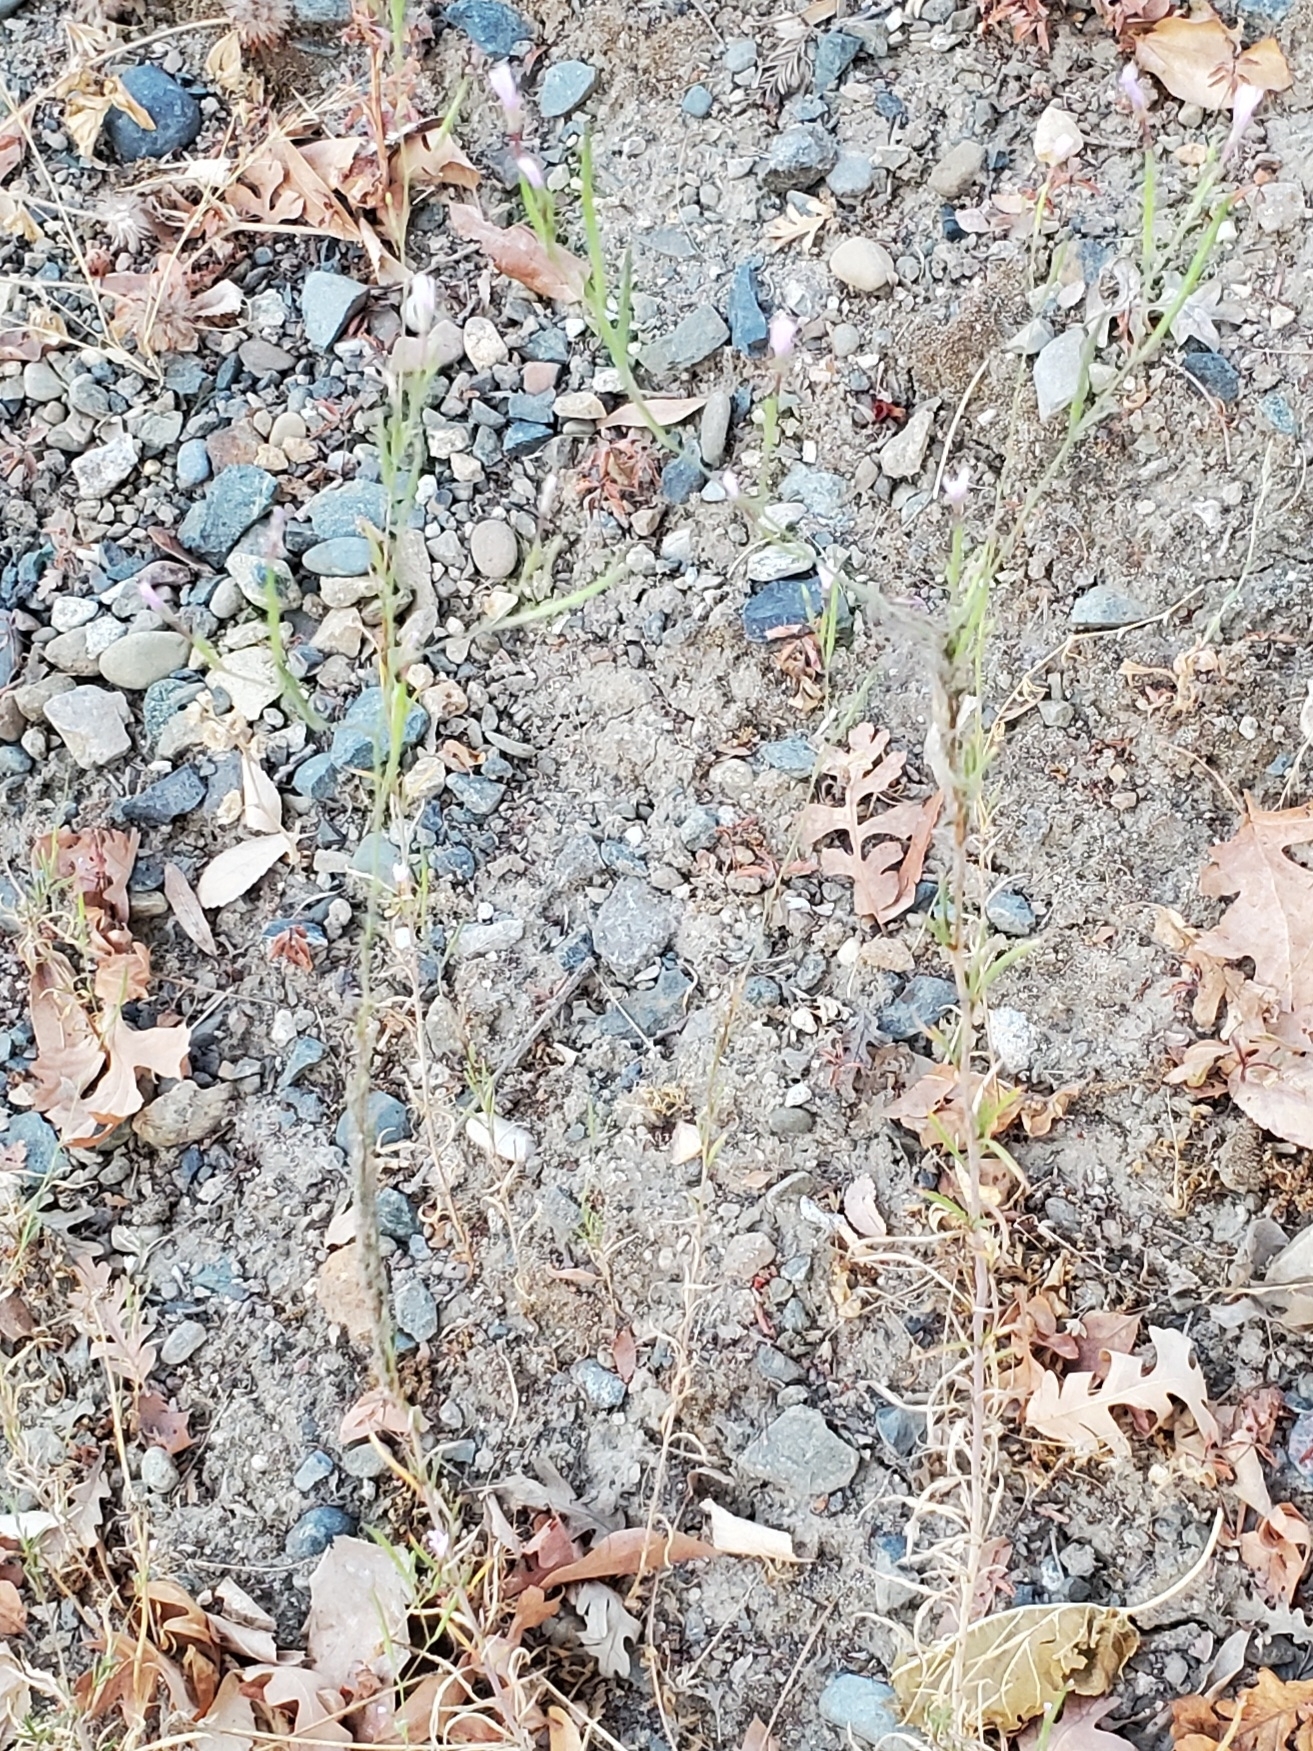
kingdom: Plantae
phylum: Tracheophyta
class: Magnoliopsida
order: Myrtales
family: Onagraceae
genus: Epilobium
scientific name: Epilobium brachycarpum
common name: Annual willowherb
